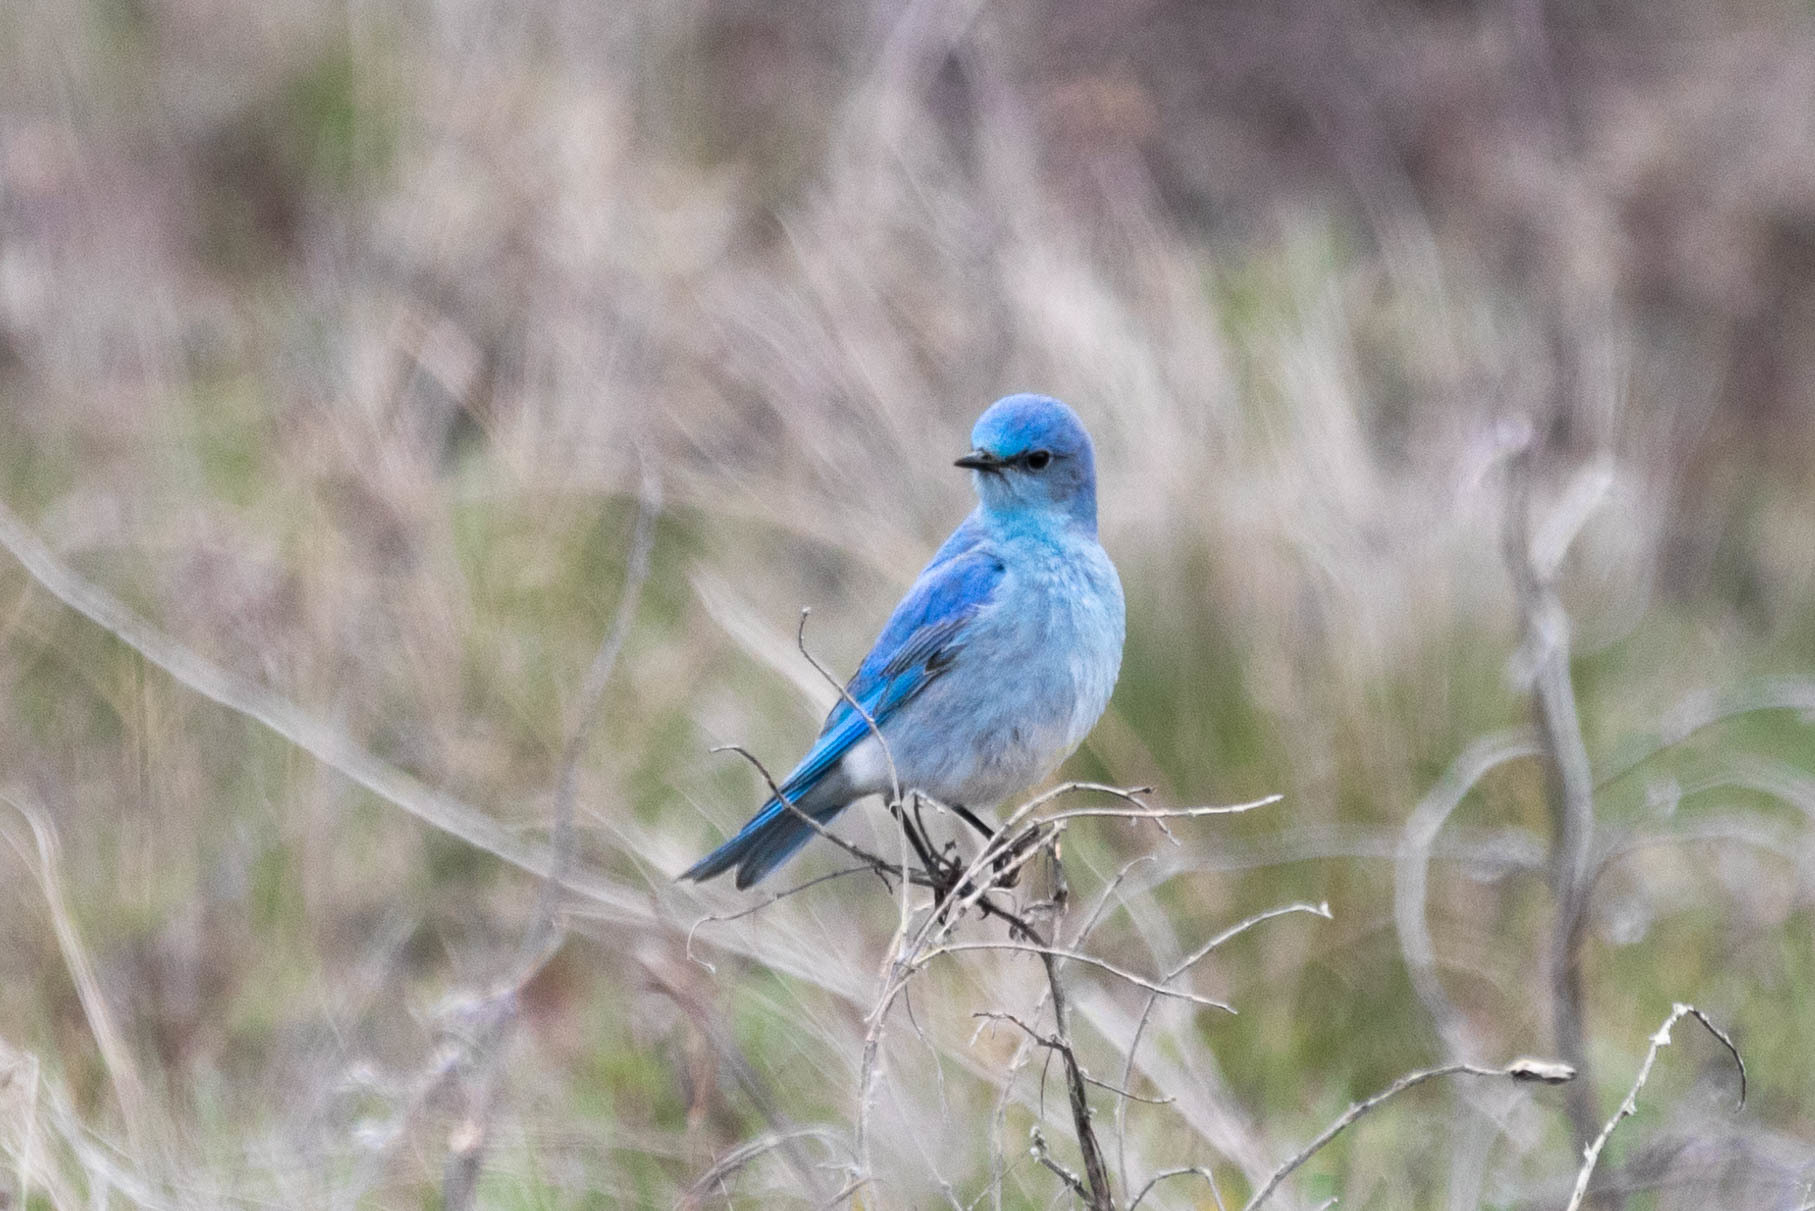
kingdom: Animalia
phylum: Chordata
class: Aves
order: Passeriformes
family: Turdidae
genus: Sialia
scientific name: Sialia currucoides
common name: Mountain bluebird
